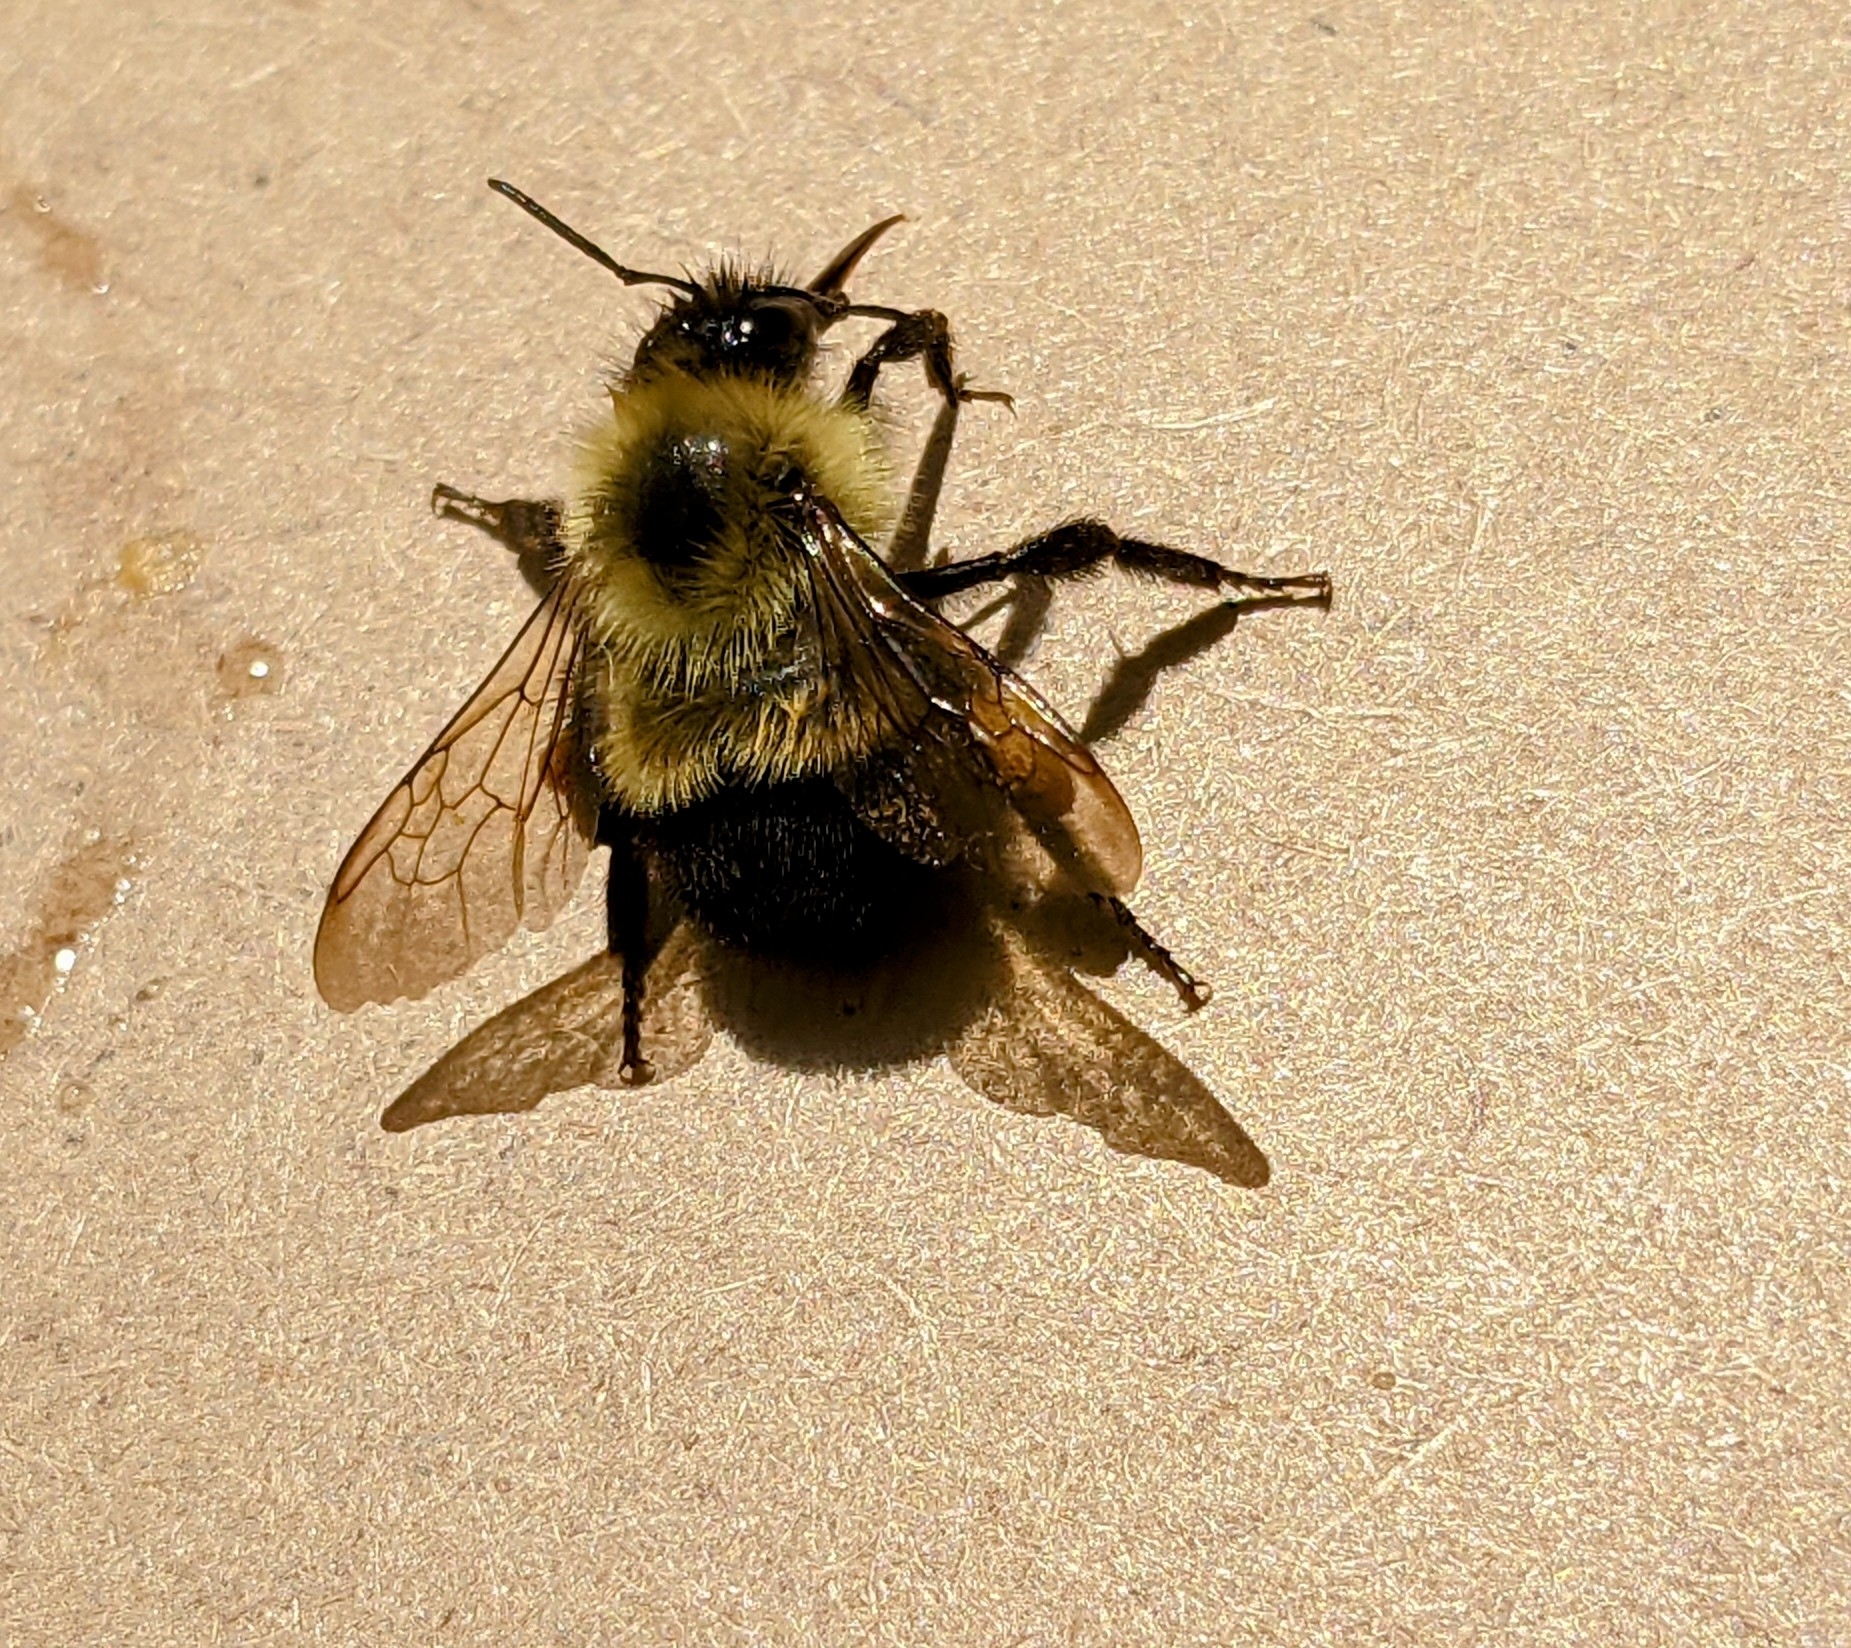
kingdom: Animalia
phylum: Arthropoda
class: Insecta
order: Hymenoptera
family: Apidae
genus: Bombus
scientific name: Bombus vagans
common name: Half-black bumble bee
